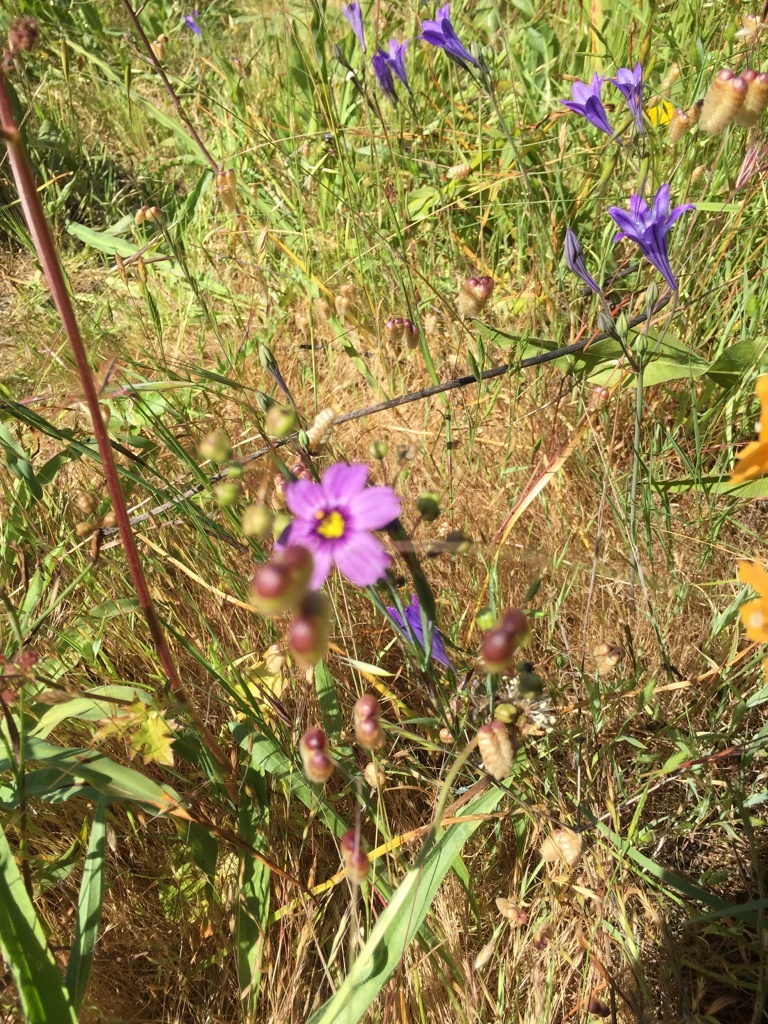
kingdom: Plantae
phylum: Tracheophyta
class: Liliopsida
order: Asparagales
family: Iridaceae
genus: Sisyrinchium
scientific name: Sisyrinchium bellum
